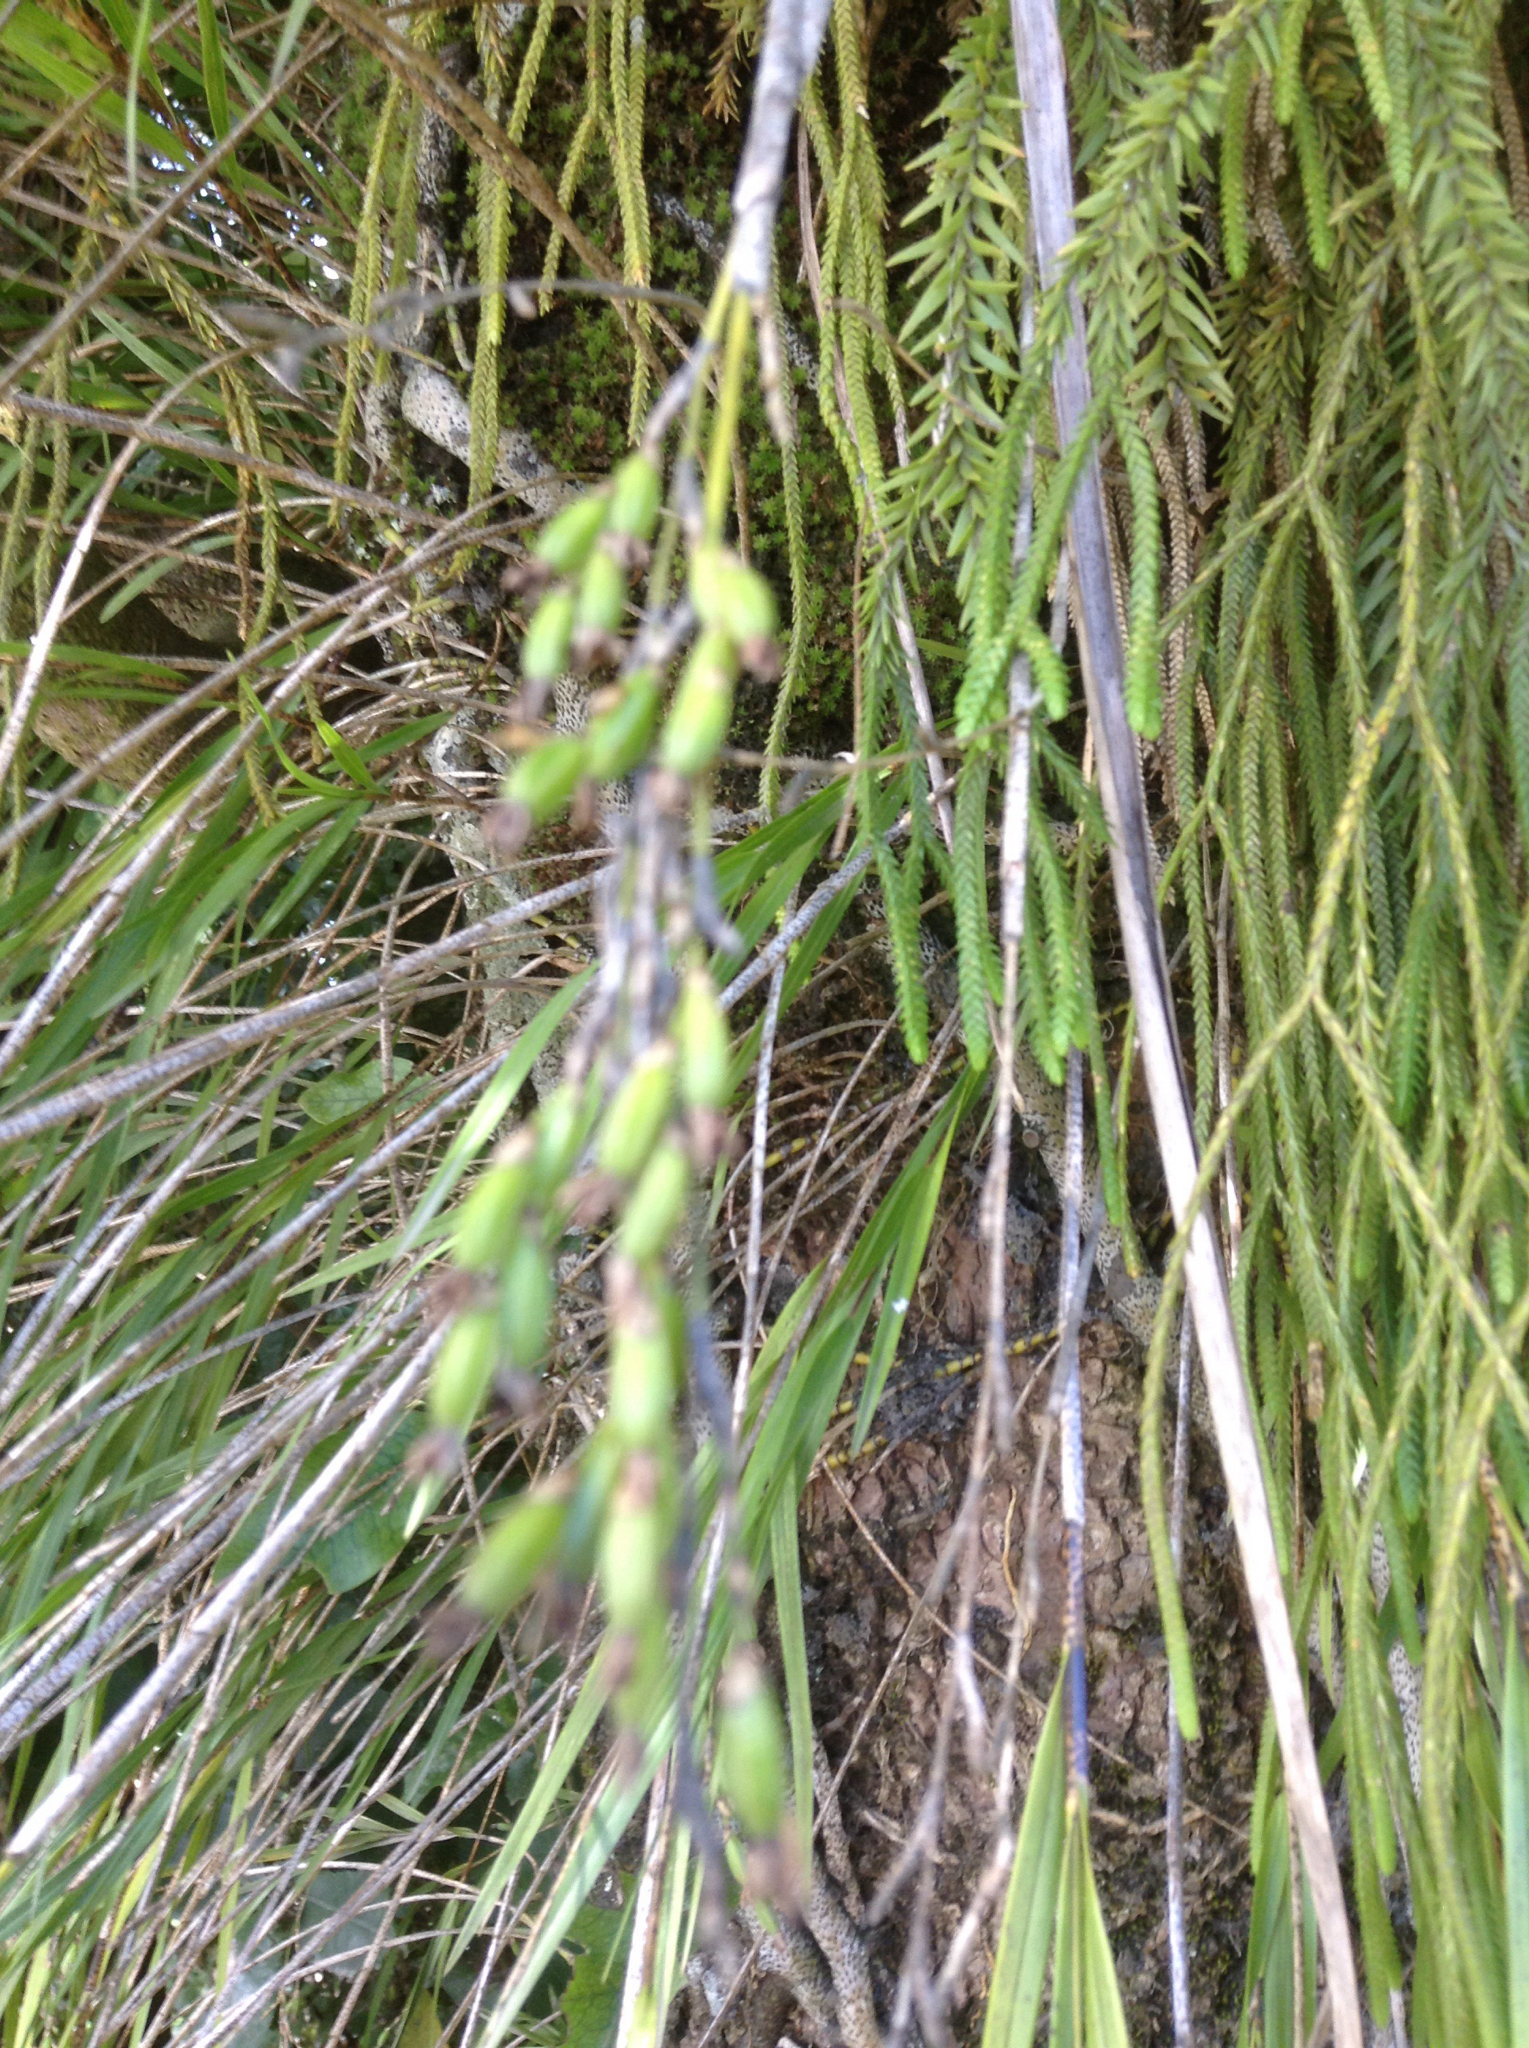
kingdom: Plantae
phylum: Tracheophyta
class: Liliopsida
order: Asparagales
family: Orchidaceae
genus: Earina
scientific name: Earina mucronata
